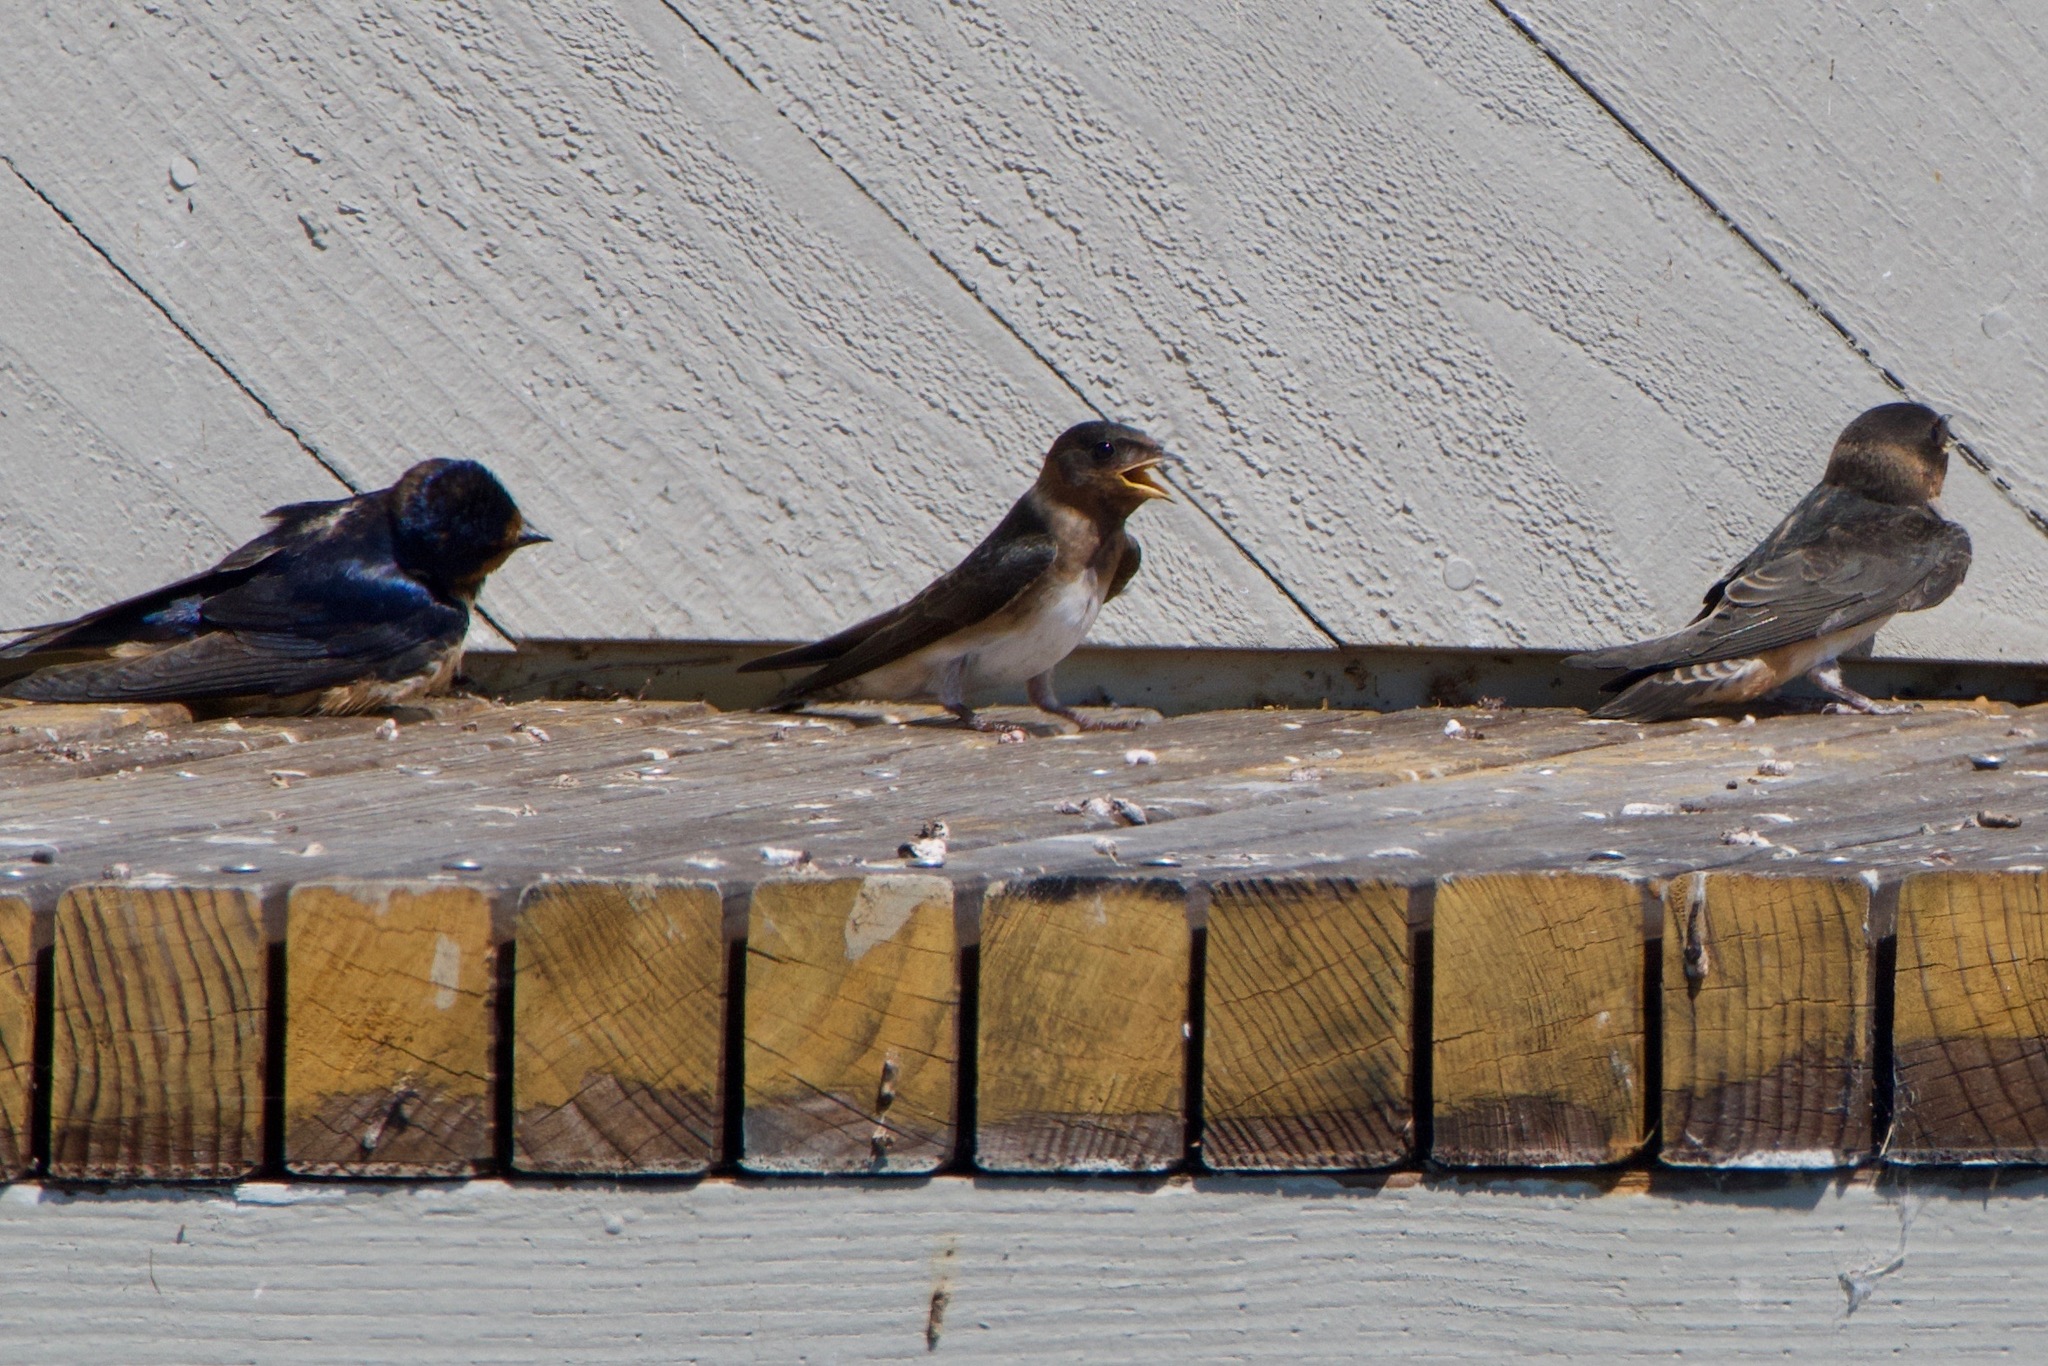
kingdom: Animalia
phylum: Chordata
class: Aves
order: Passeriformes
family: Hirundinidae
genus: Petrochelidon
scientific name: Petrochelidon pyrrhonota
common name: American cliff swallow
